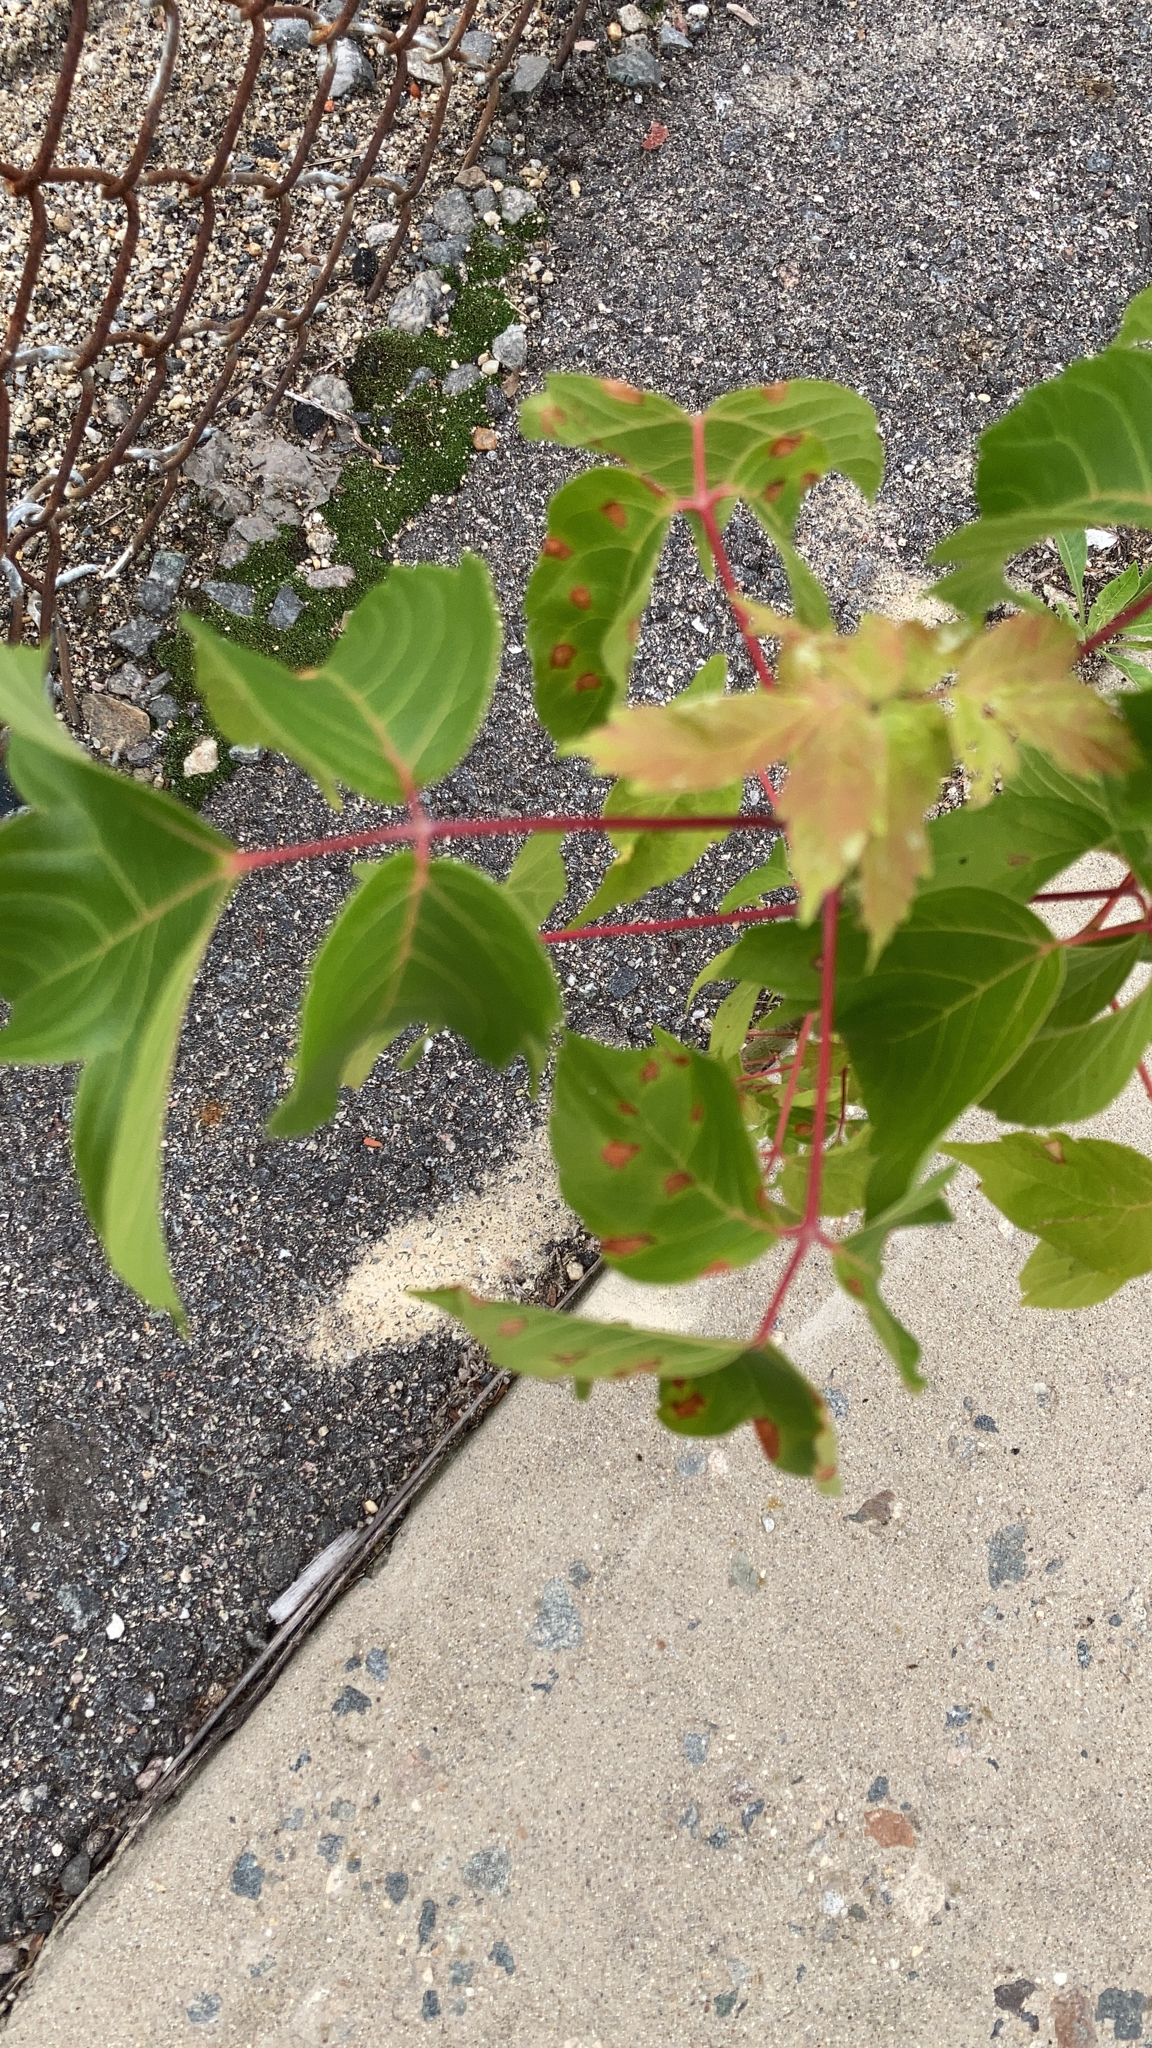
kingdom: Plantae
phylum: Tracheophyta
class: Magnoliopsida
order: Sapindales
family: Sapindaceae
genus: Acer
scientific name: Acer negundo
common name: Ashleaf maple
